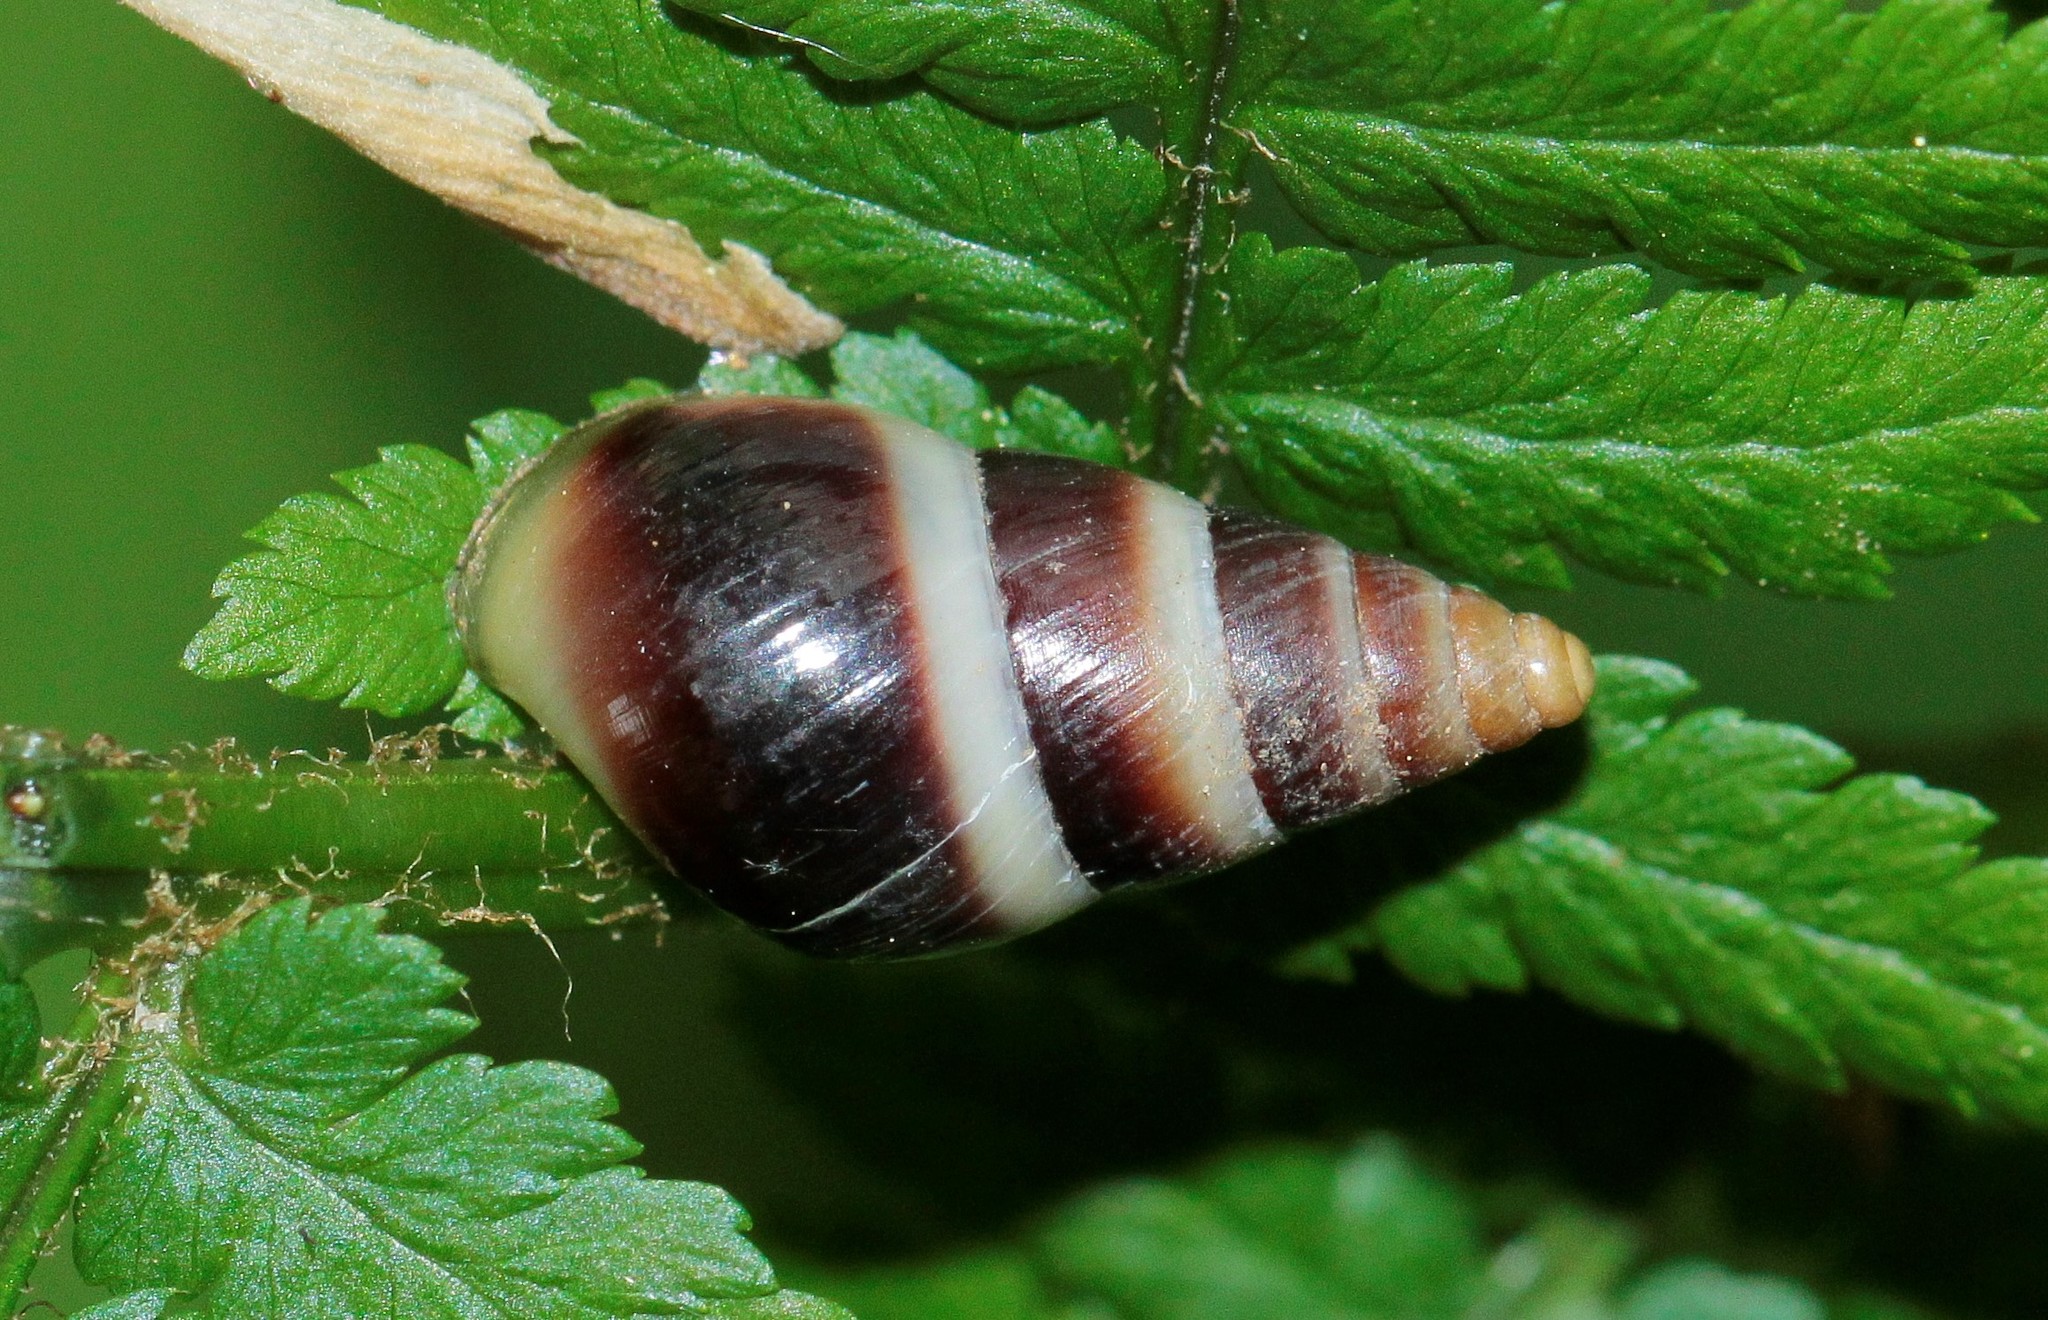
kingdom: Animalia
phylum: Mollusca
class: Gastropoda
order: Stylommatophora
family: Enidae
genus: Caucasicola
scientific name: Caucasicola raddei
